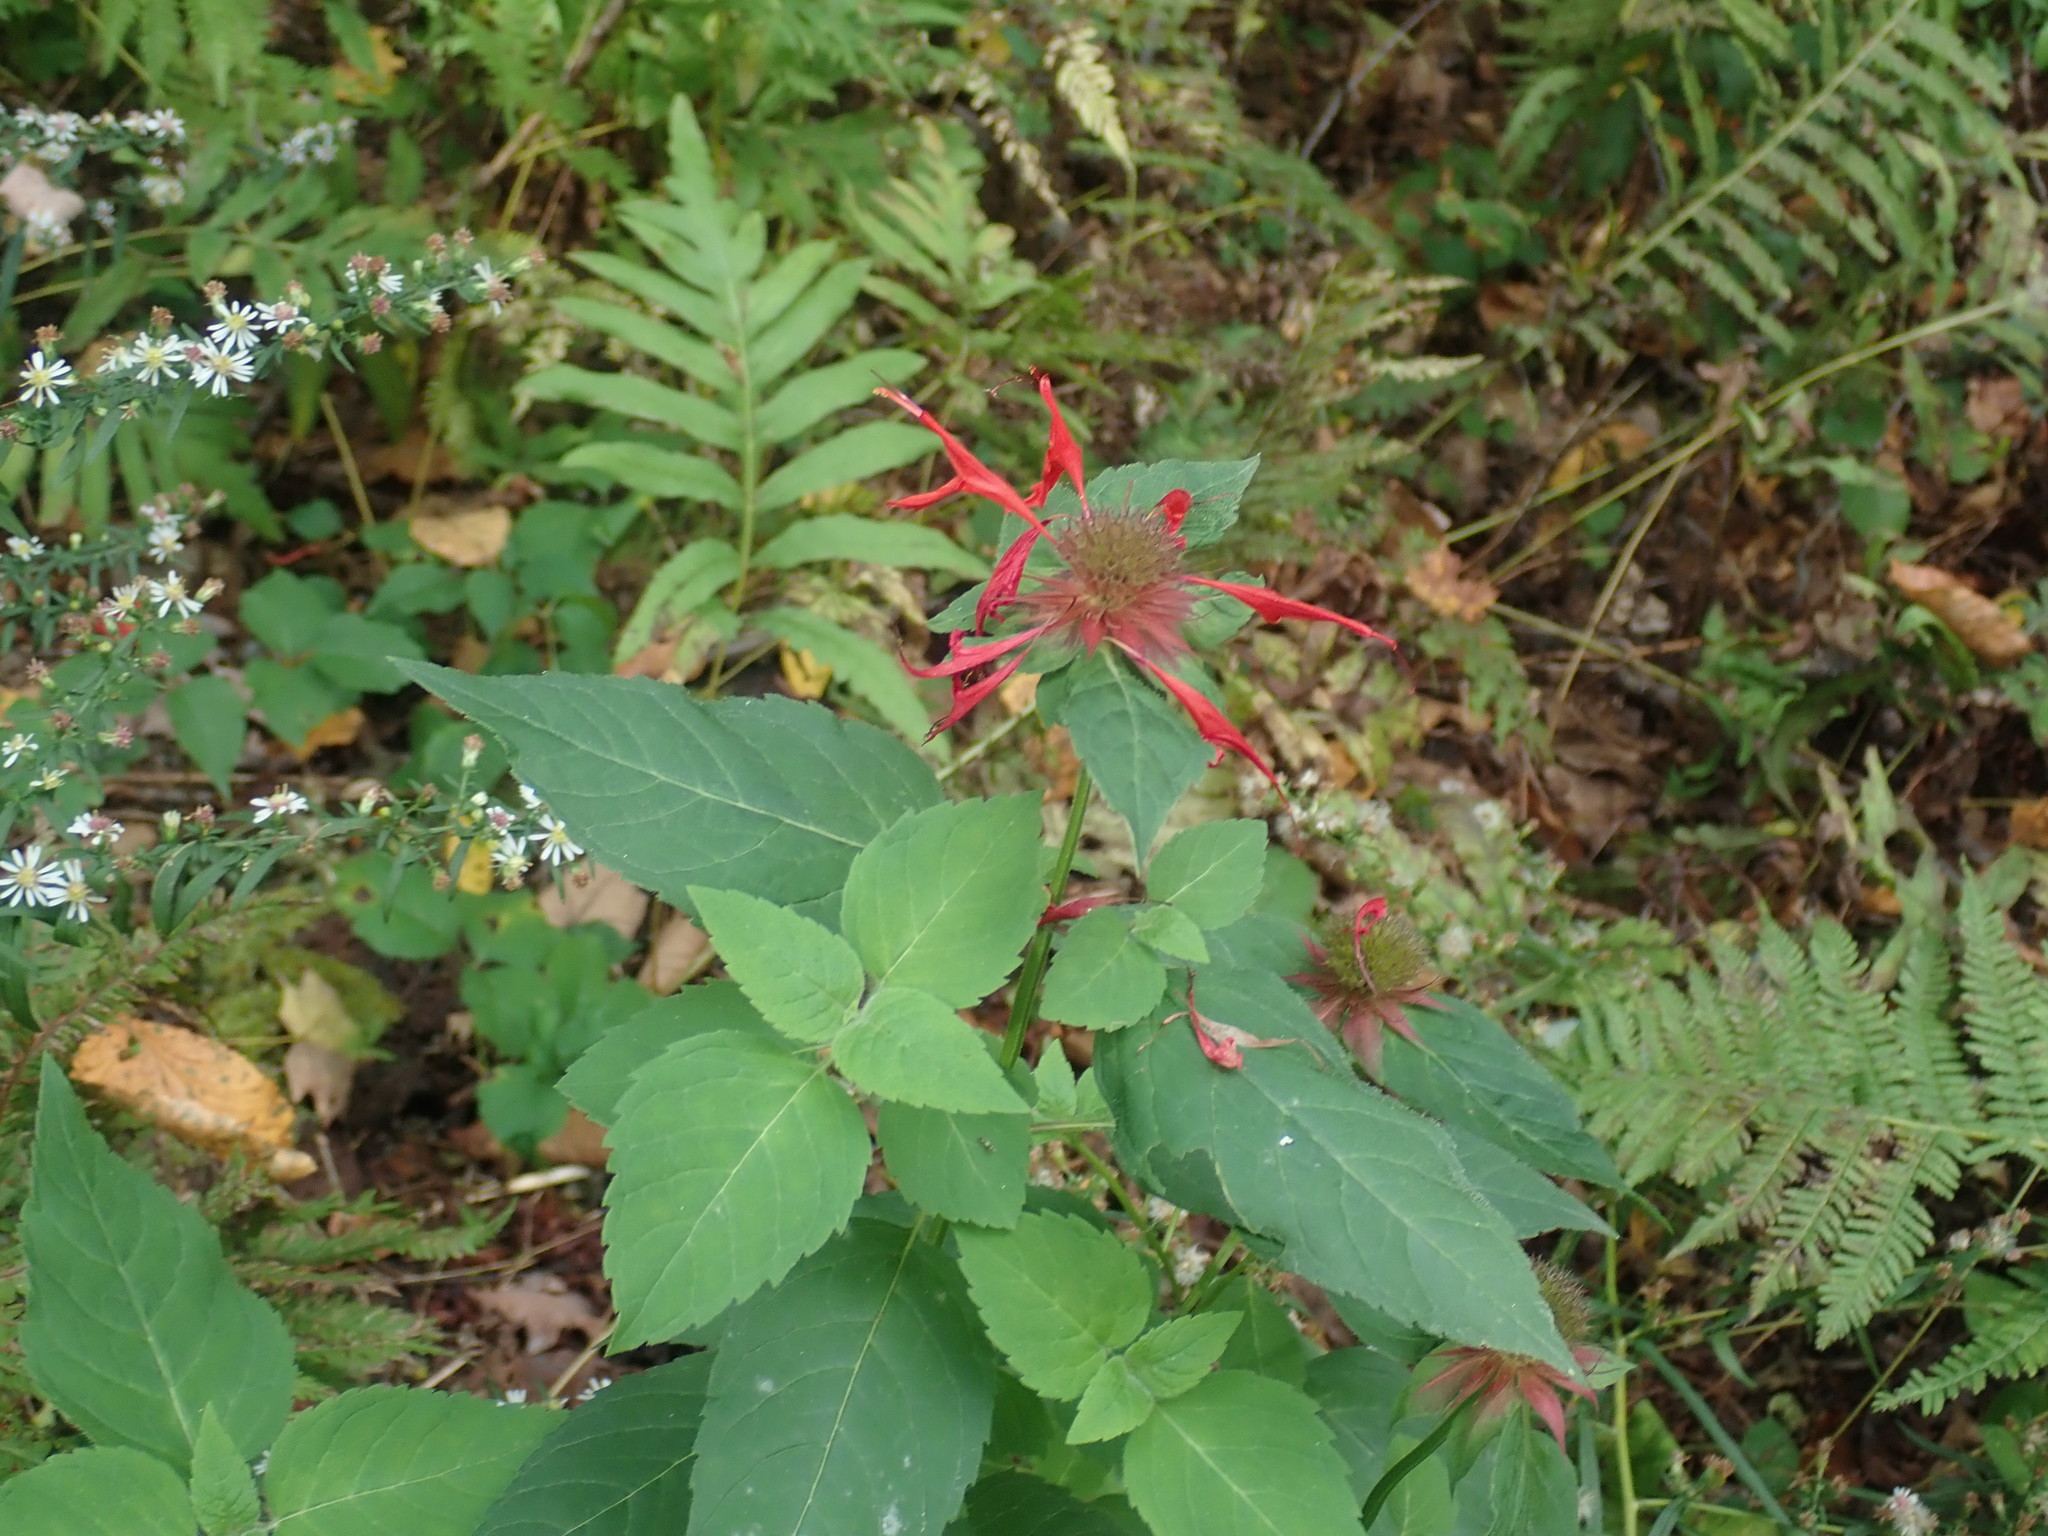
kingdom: Plantae
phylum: Tracheophyta
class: Magnoliopsida
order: Lamiales
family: Lamiaceae
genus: Monarda
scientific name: Monarda didyma
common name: Beebalm
